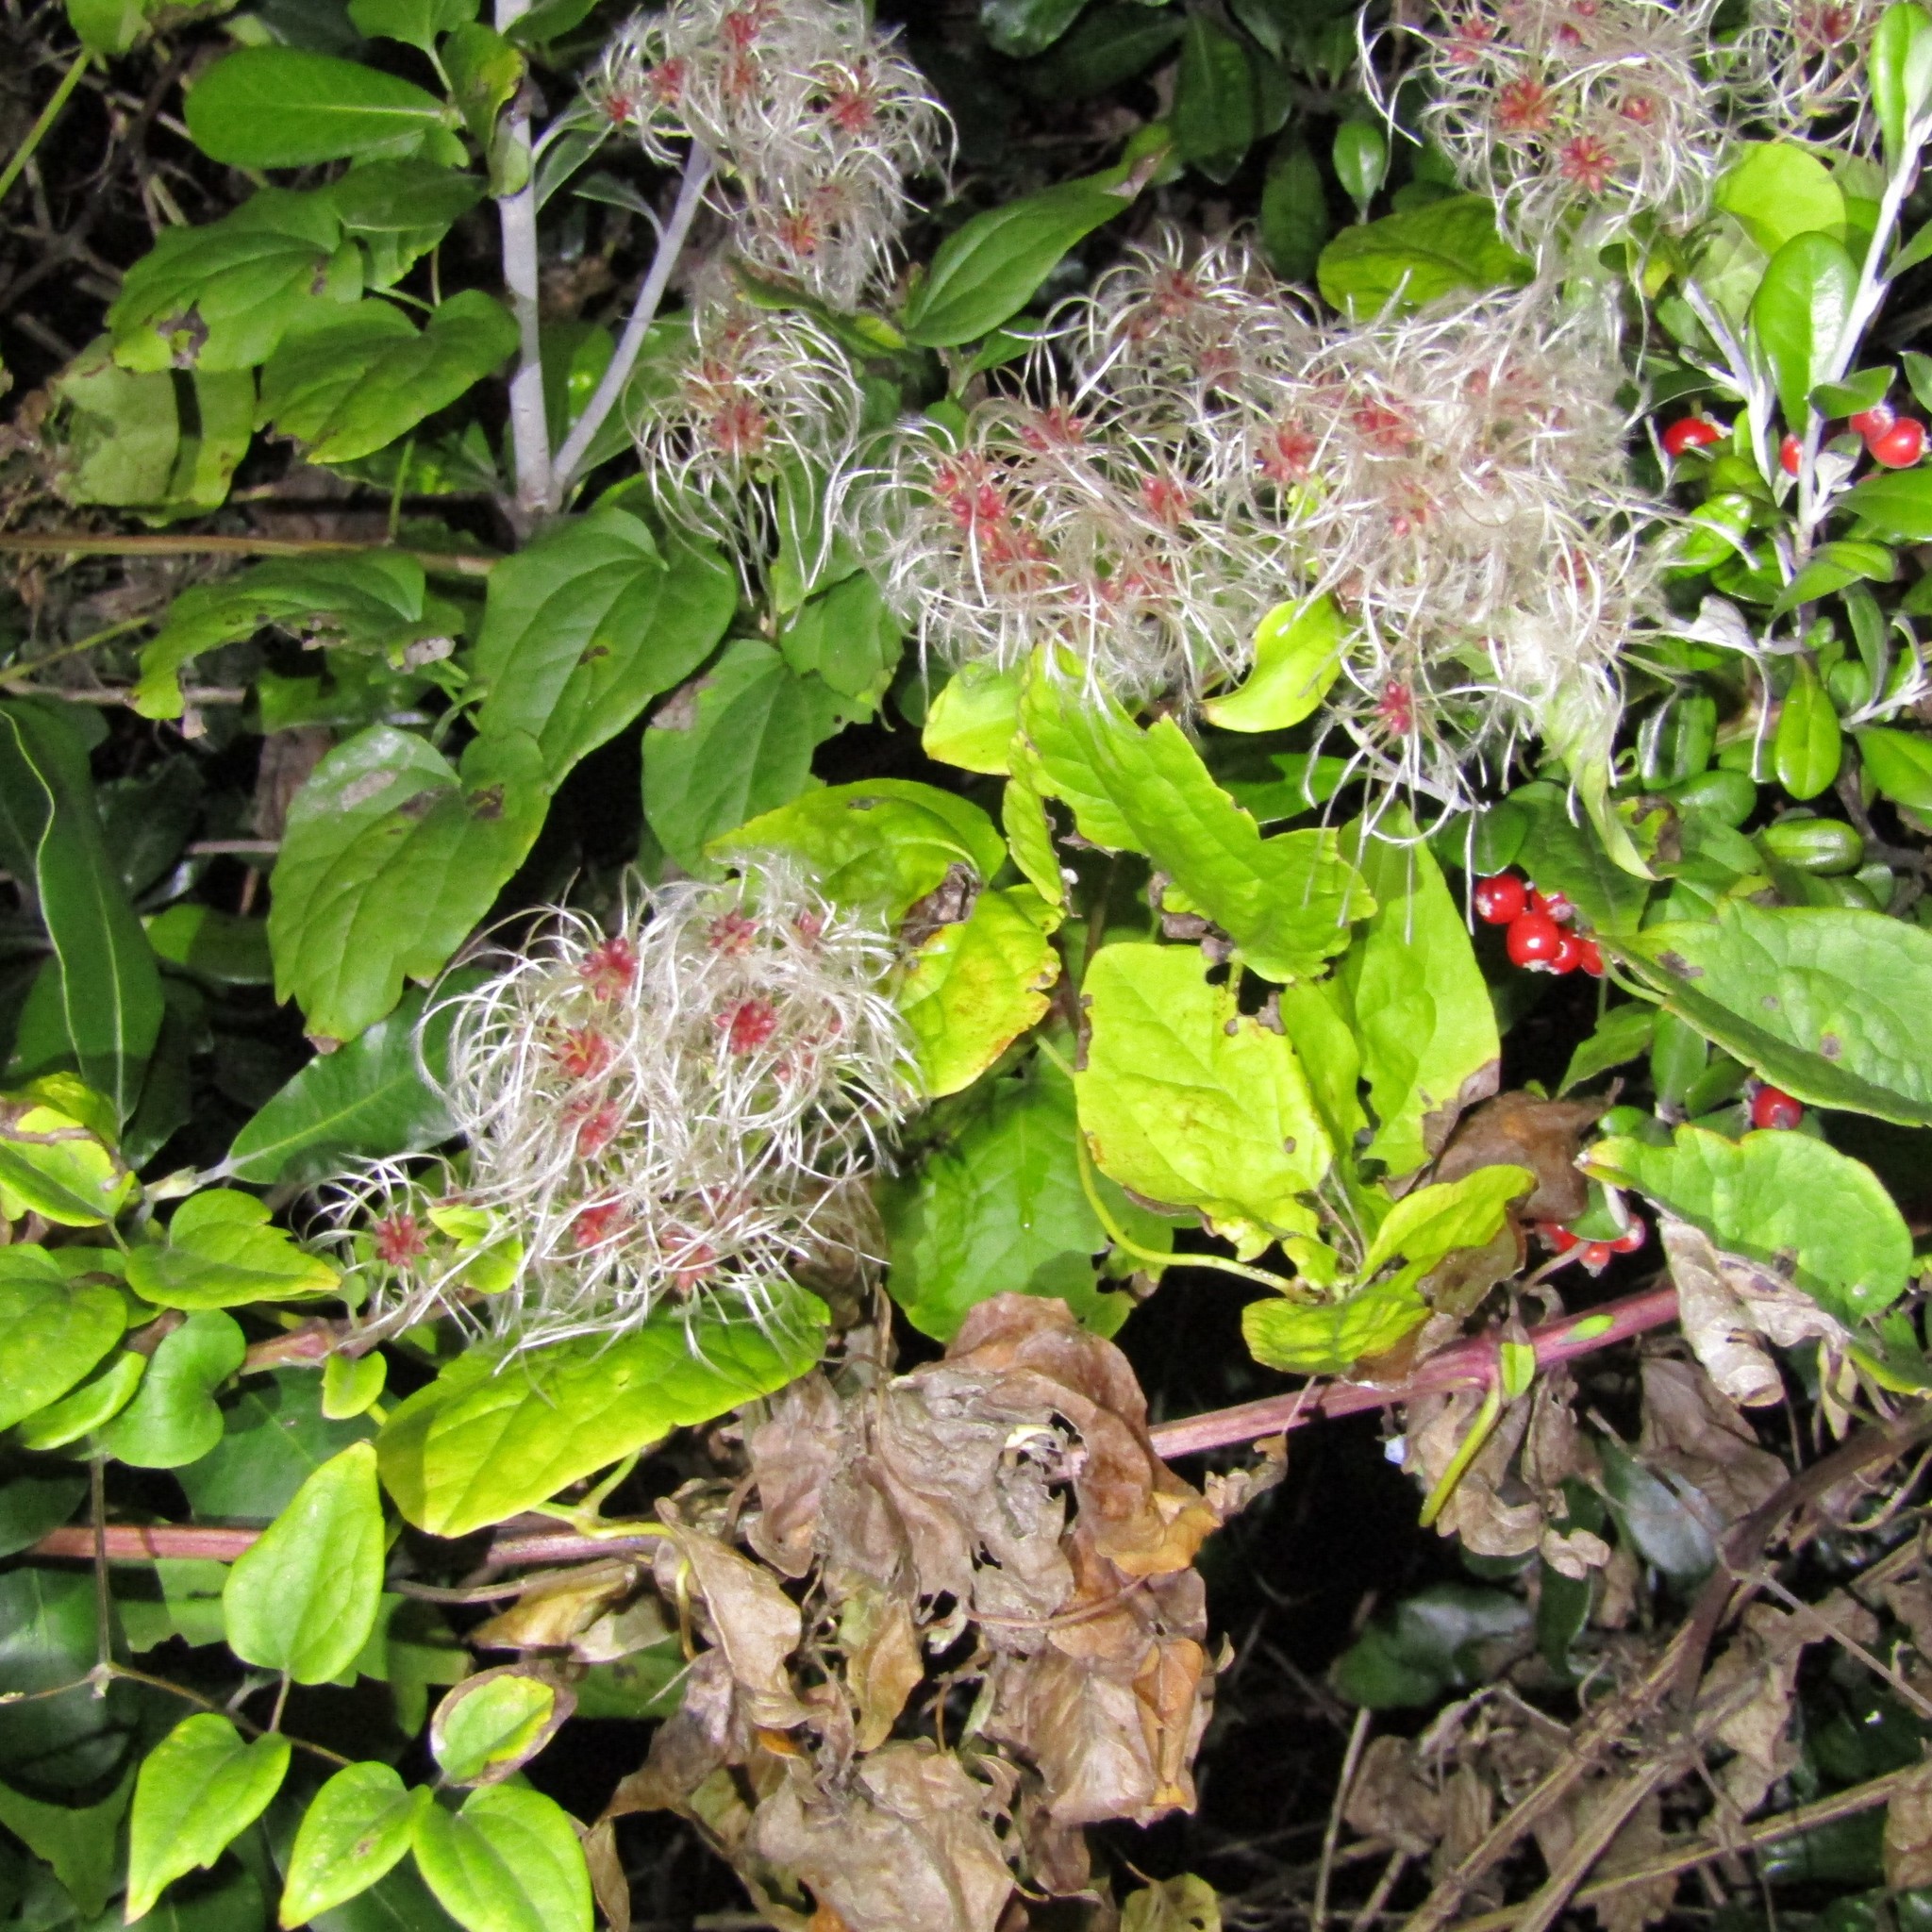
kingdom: Plantae
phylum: Tracheophyta
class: Magnoliopsida
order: Ranunculales
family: Ranunculaceae
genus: Clematis
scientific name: Clematis vitalba
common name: Evergreen clematis
